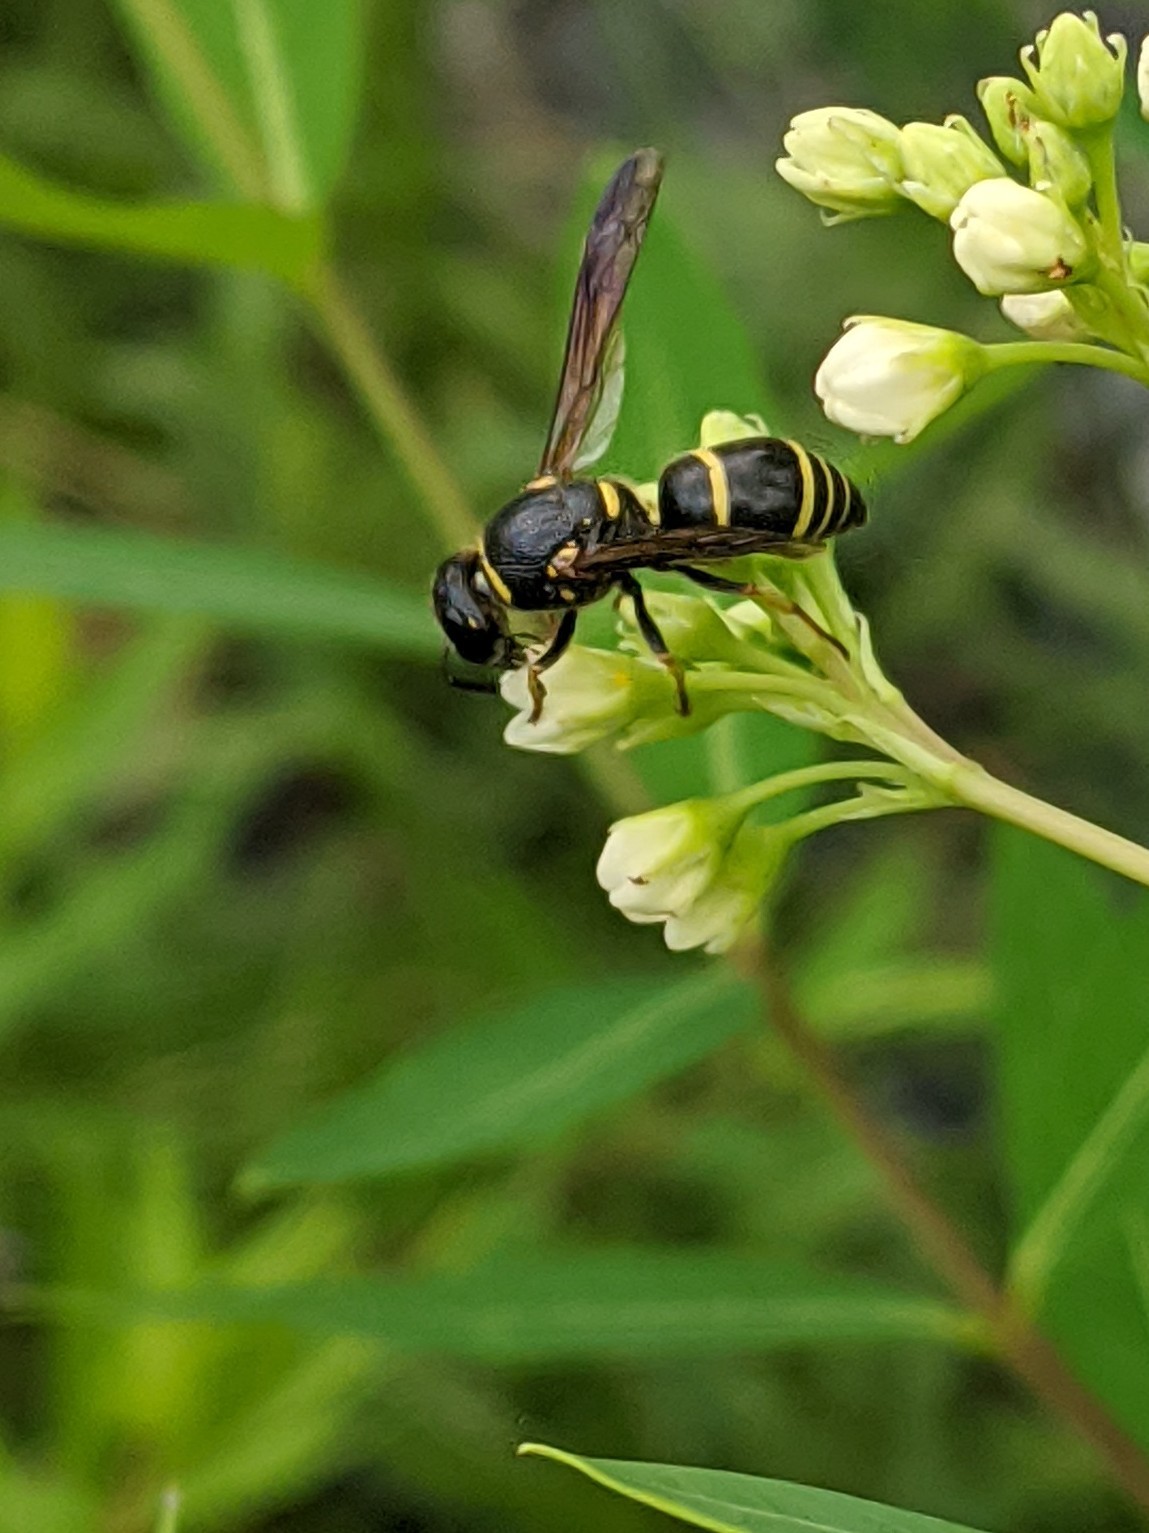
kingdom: Animalia
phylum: Arthropoda
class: Insecta
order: Hymenoptera
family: Eumenidae
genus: Euodynerus
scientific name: Euodynerus foraminatus
